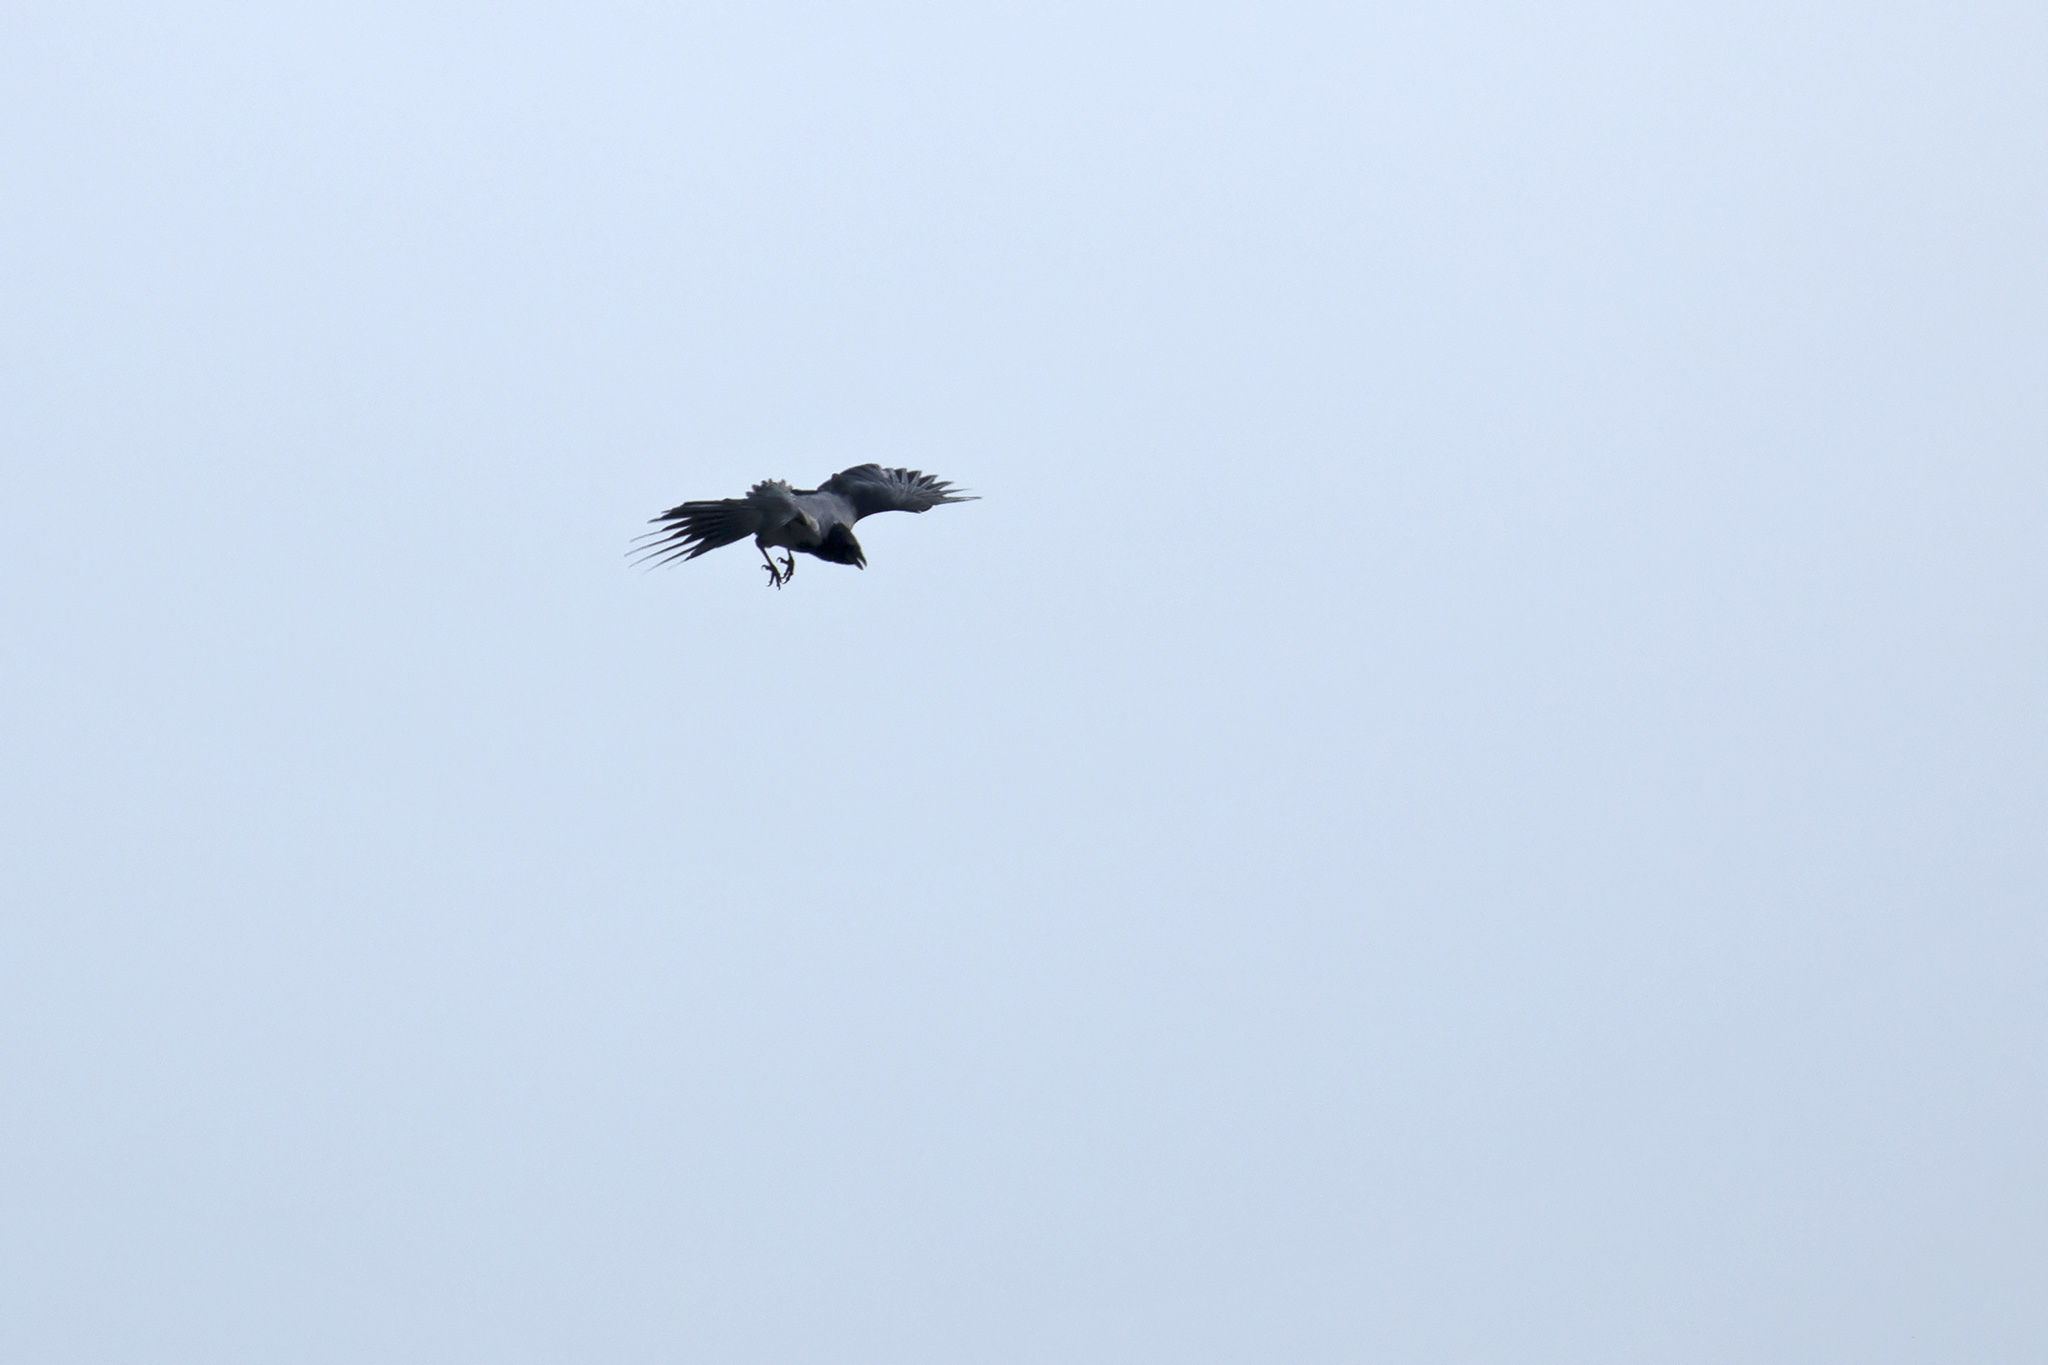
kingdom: Animalia
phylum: Chordata
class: Aves
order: Passeriformes
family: Corvidae
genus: Corvus
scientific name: Corvus cornix
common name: Hooded crow
